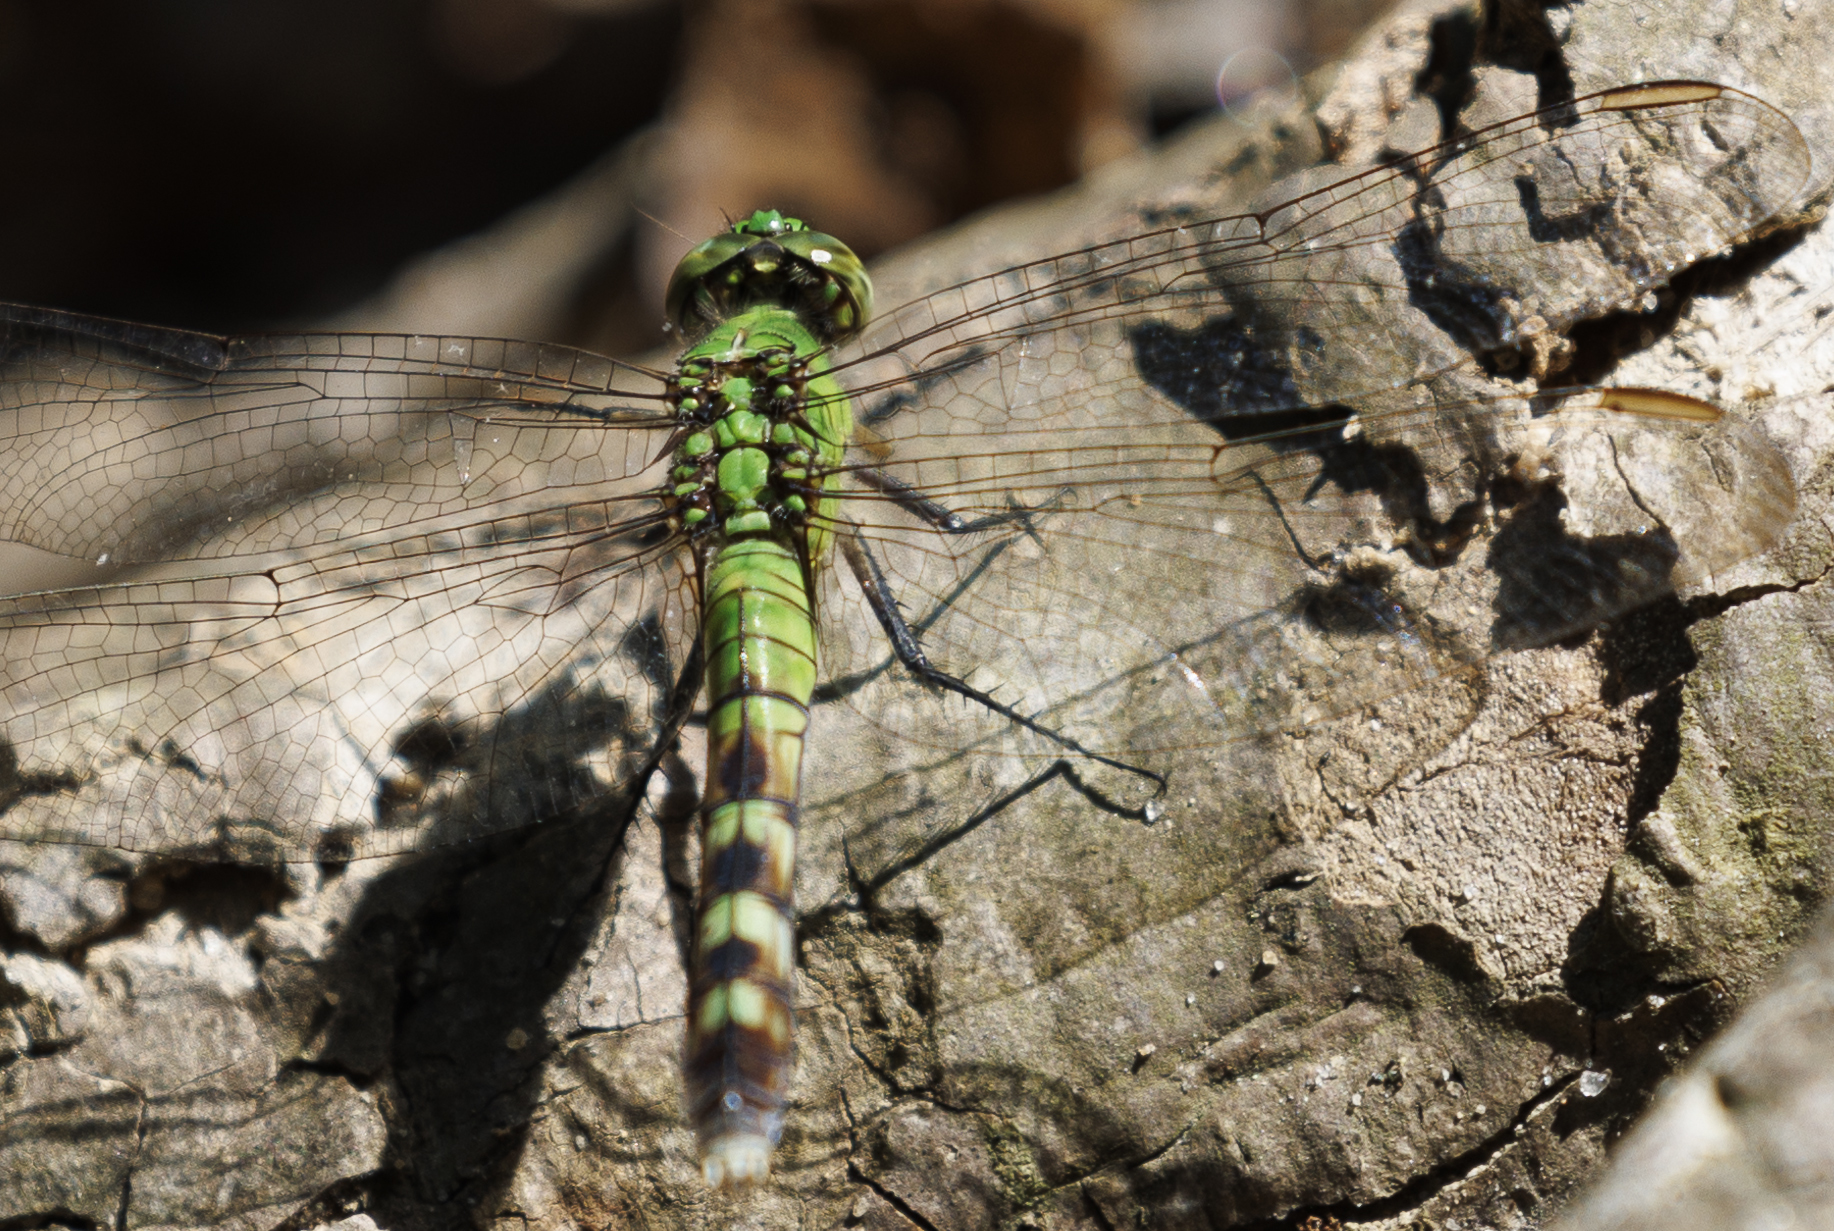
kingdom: Animalia
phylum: Arthropoda
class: Insecta
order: Odonata
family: Libellulidae
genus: Erythemis
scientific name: Erythemis simplicicollis
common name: Eastern pondhawk
